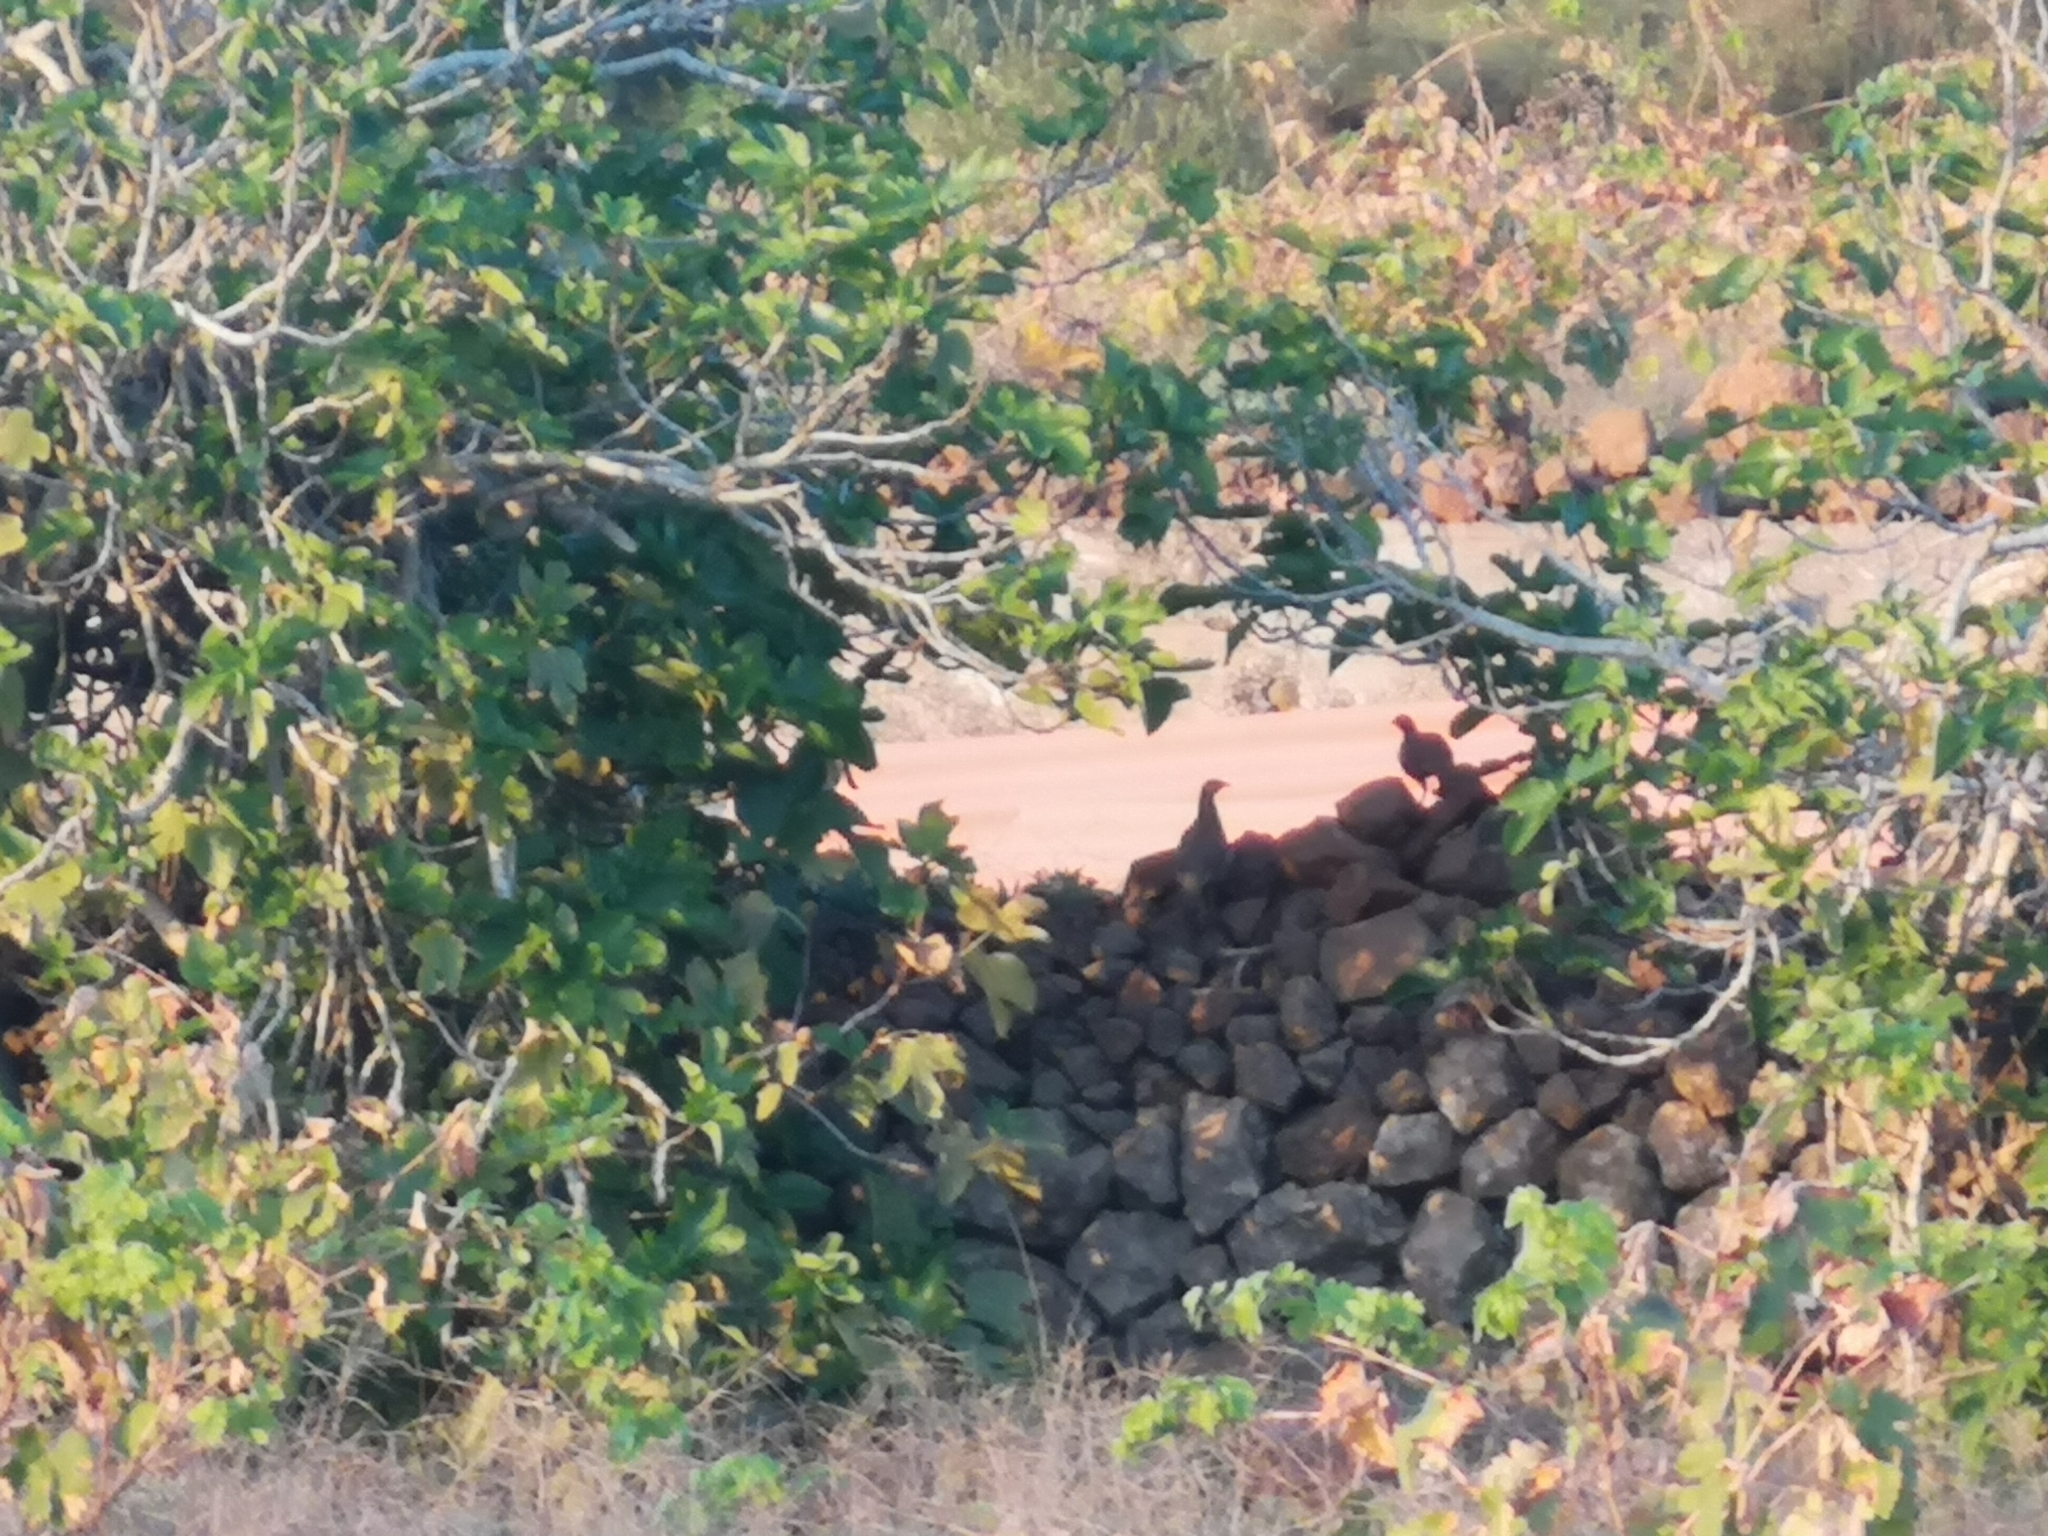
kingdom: Animalia
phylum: Chordata
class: Aves
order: Galliformes
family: Phasianidae
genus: Alectoris
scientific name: Alectoris barbara
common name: Barbary partridge
